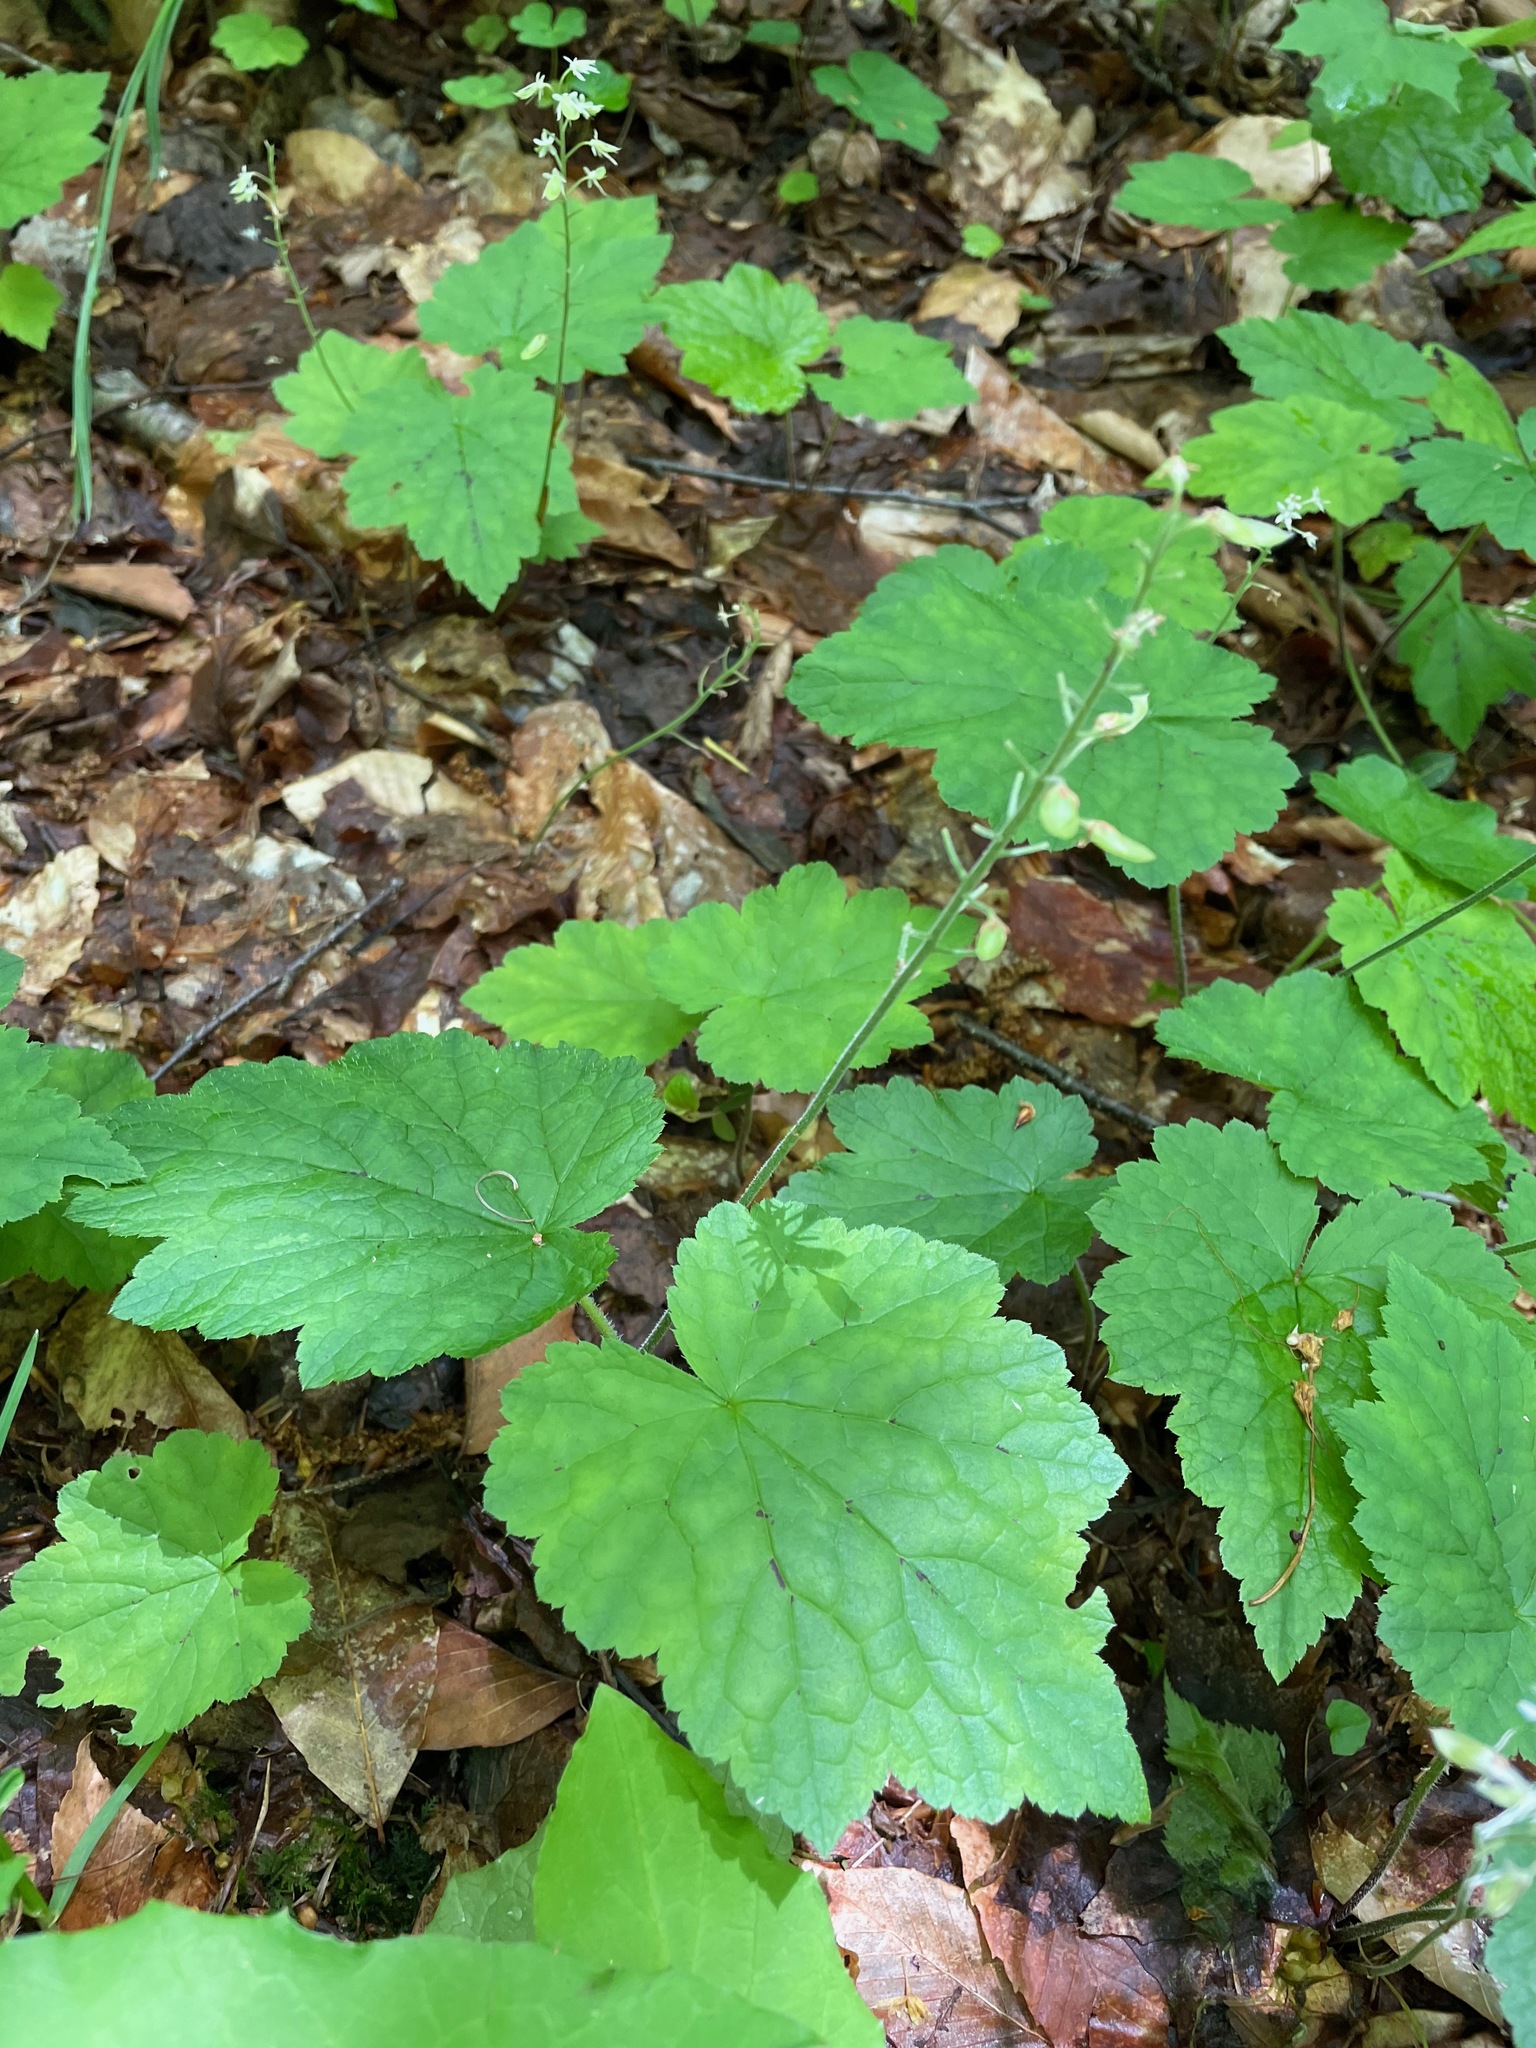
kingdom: Plantae
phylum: Tracheophyta
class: Magnoliopsida
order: Saxifragales
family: Saxifragaceae
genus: Tiarella
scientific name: Tiarella stolonifera
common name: Stoloniferous foamflower
